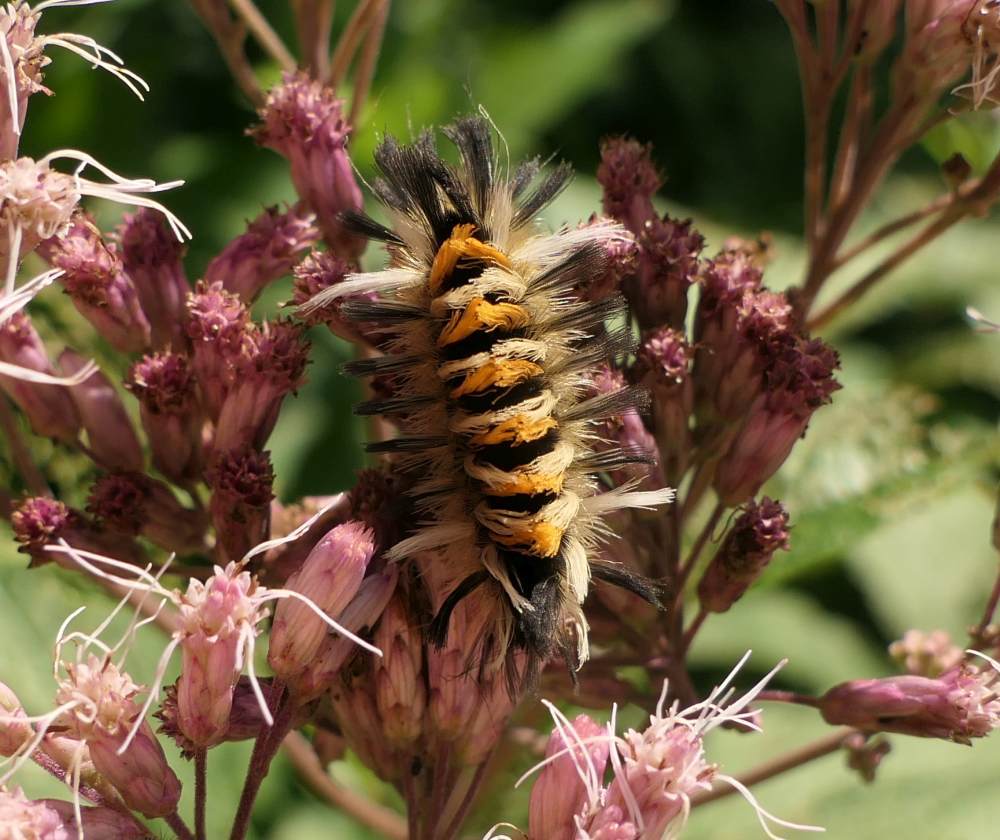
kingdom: Animalia
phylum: Arthropoda
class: Insecta
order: Lepidoptera
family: Erebidae
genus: Euchaetes
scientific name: Euchaetes egle
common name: Milkweed tussock moth
